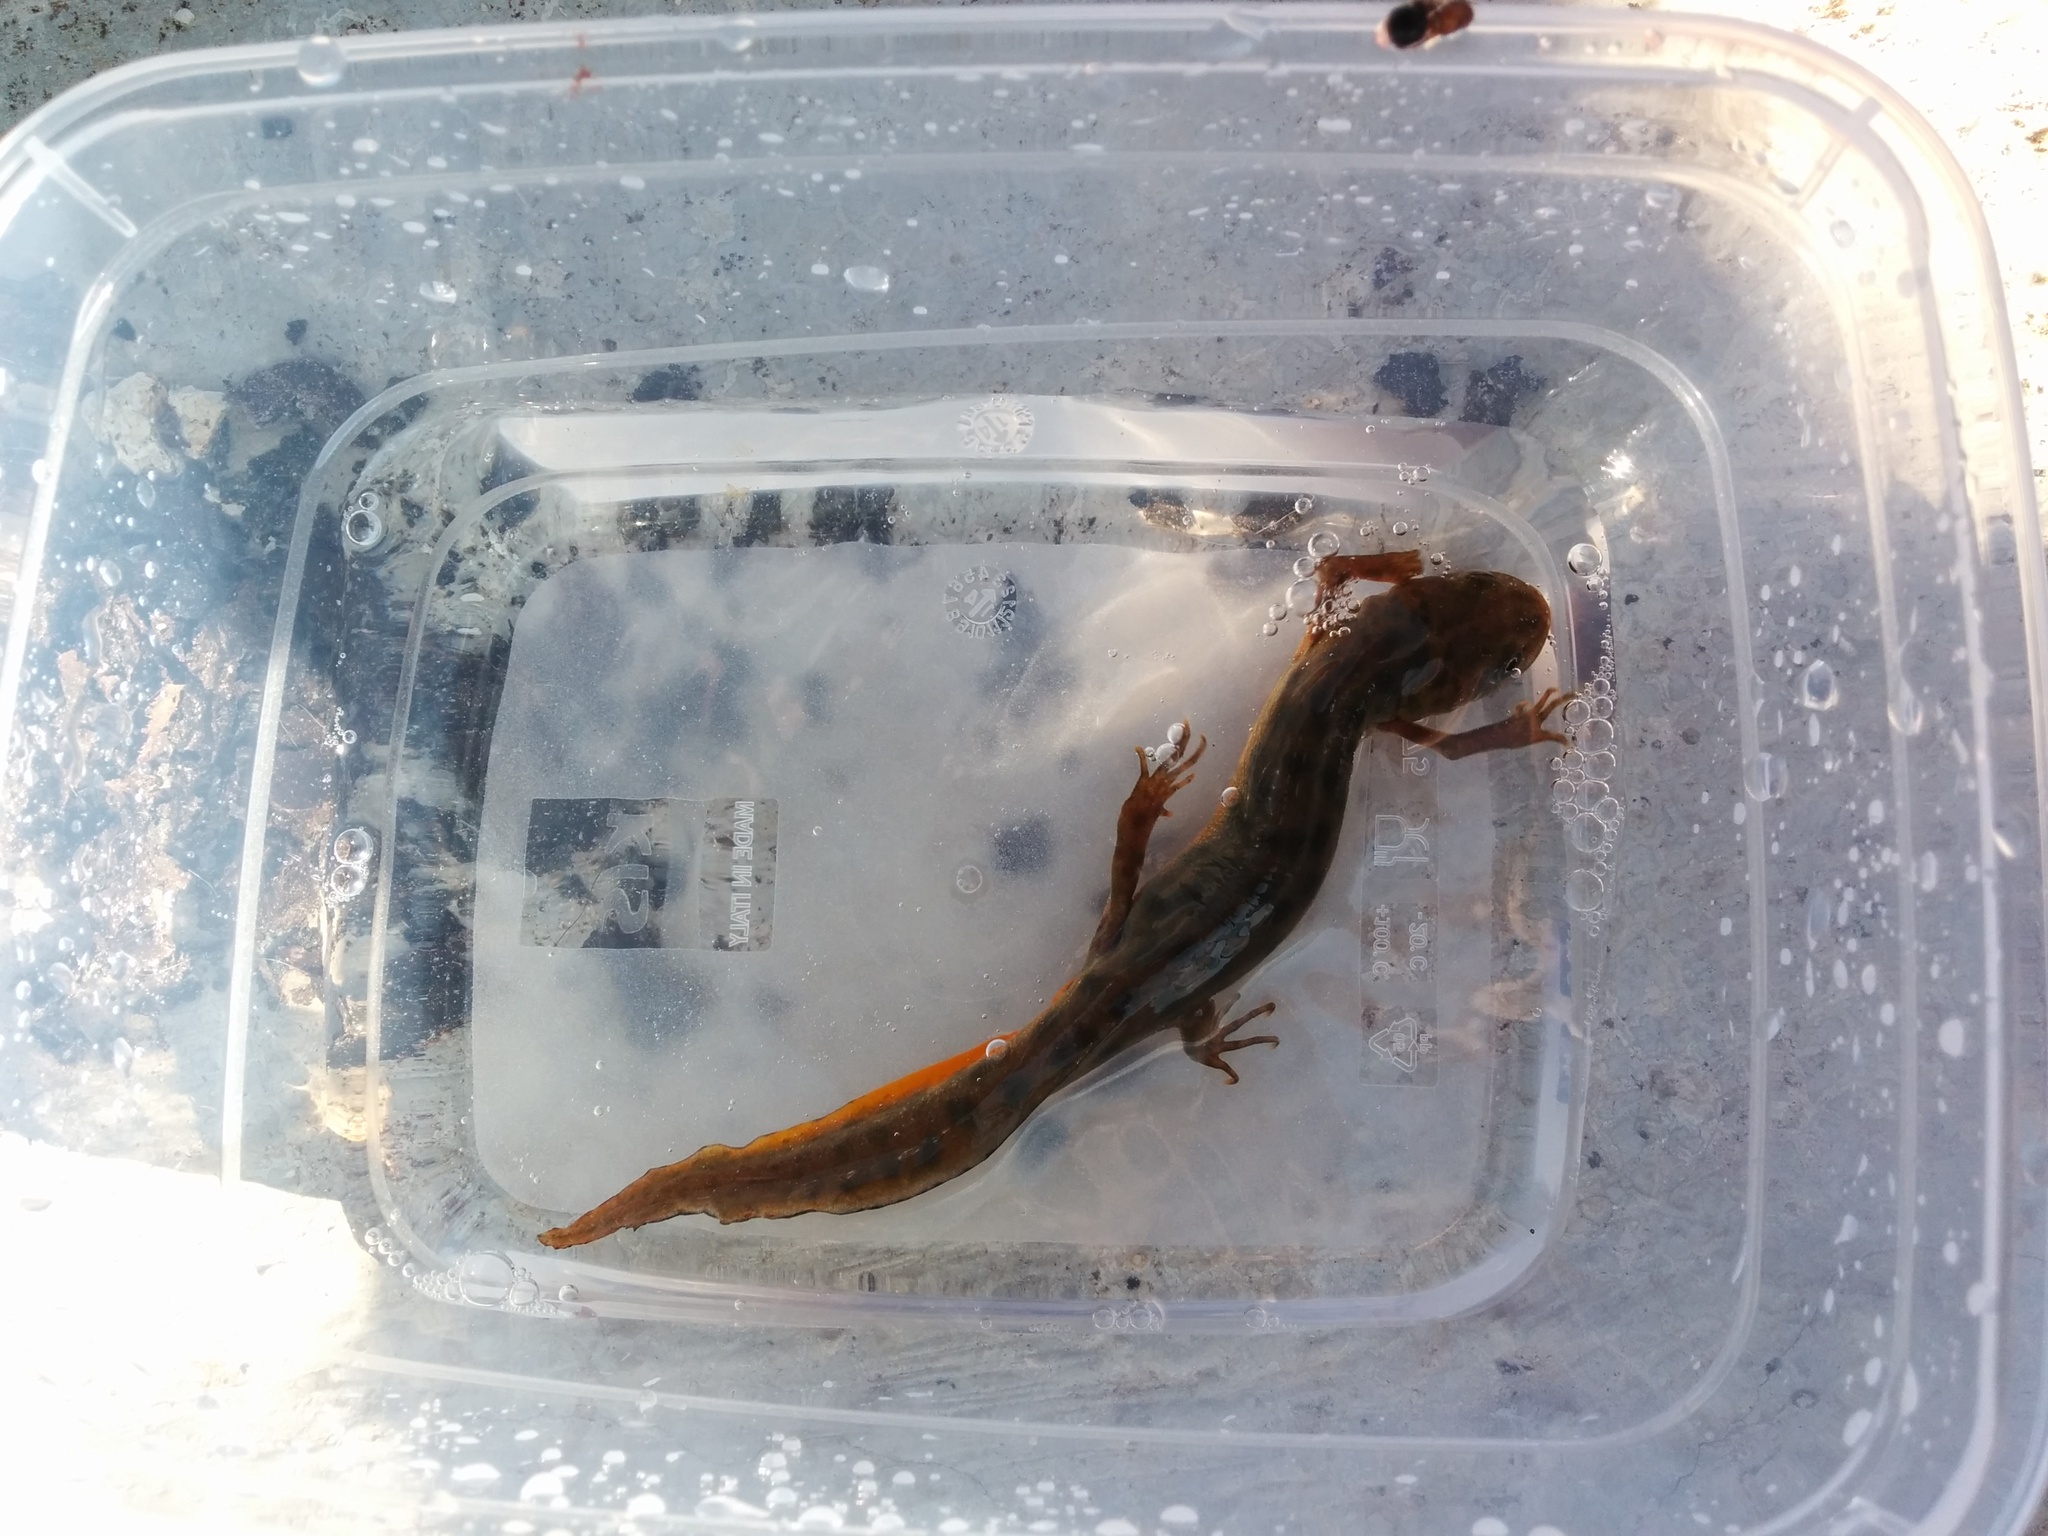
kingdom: Animalia
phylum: Chordata
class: Amphibia
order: Caudata
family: Salamandridae
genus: Triturus
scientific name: Triturus carnifex
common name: Italian crested newt
